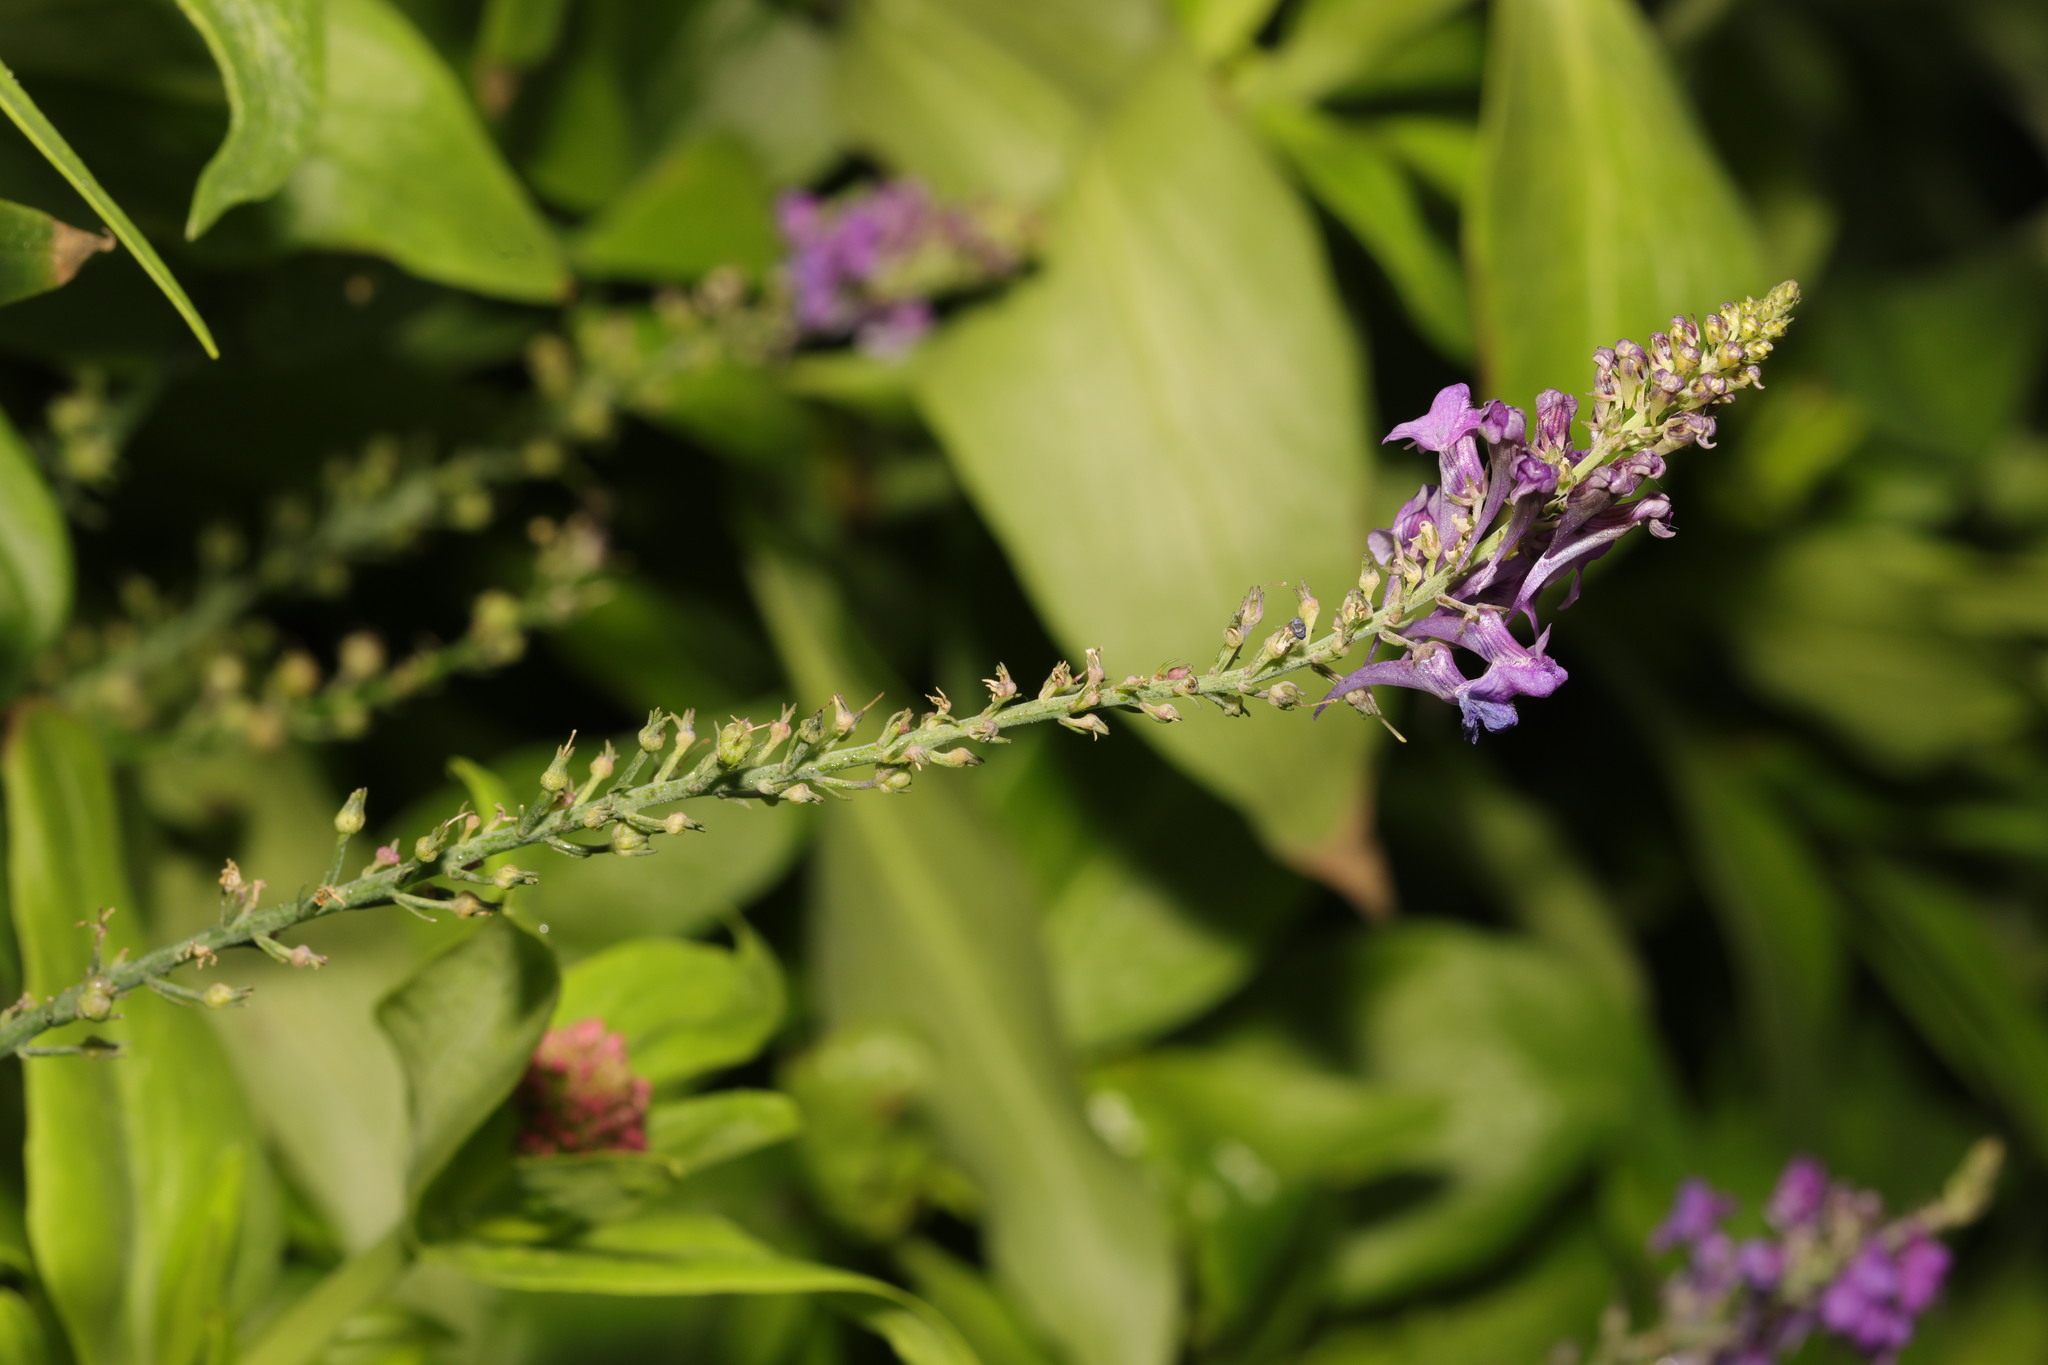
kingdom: Plantae
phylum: Tracheophyta
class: Magnoliopsida
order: Lamiales
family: Plantaginaceae
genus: Linaria
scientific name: Linaria purpurea
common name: Purple toadflax
